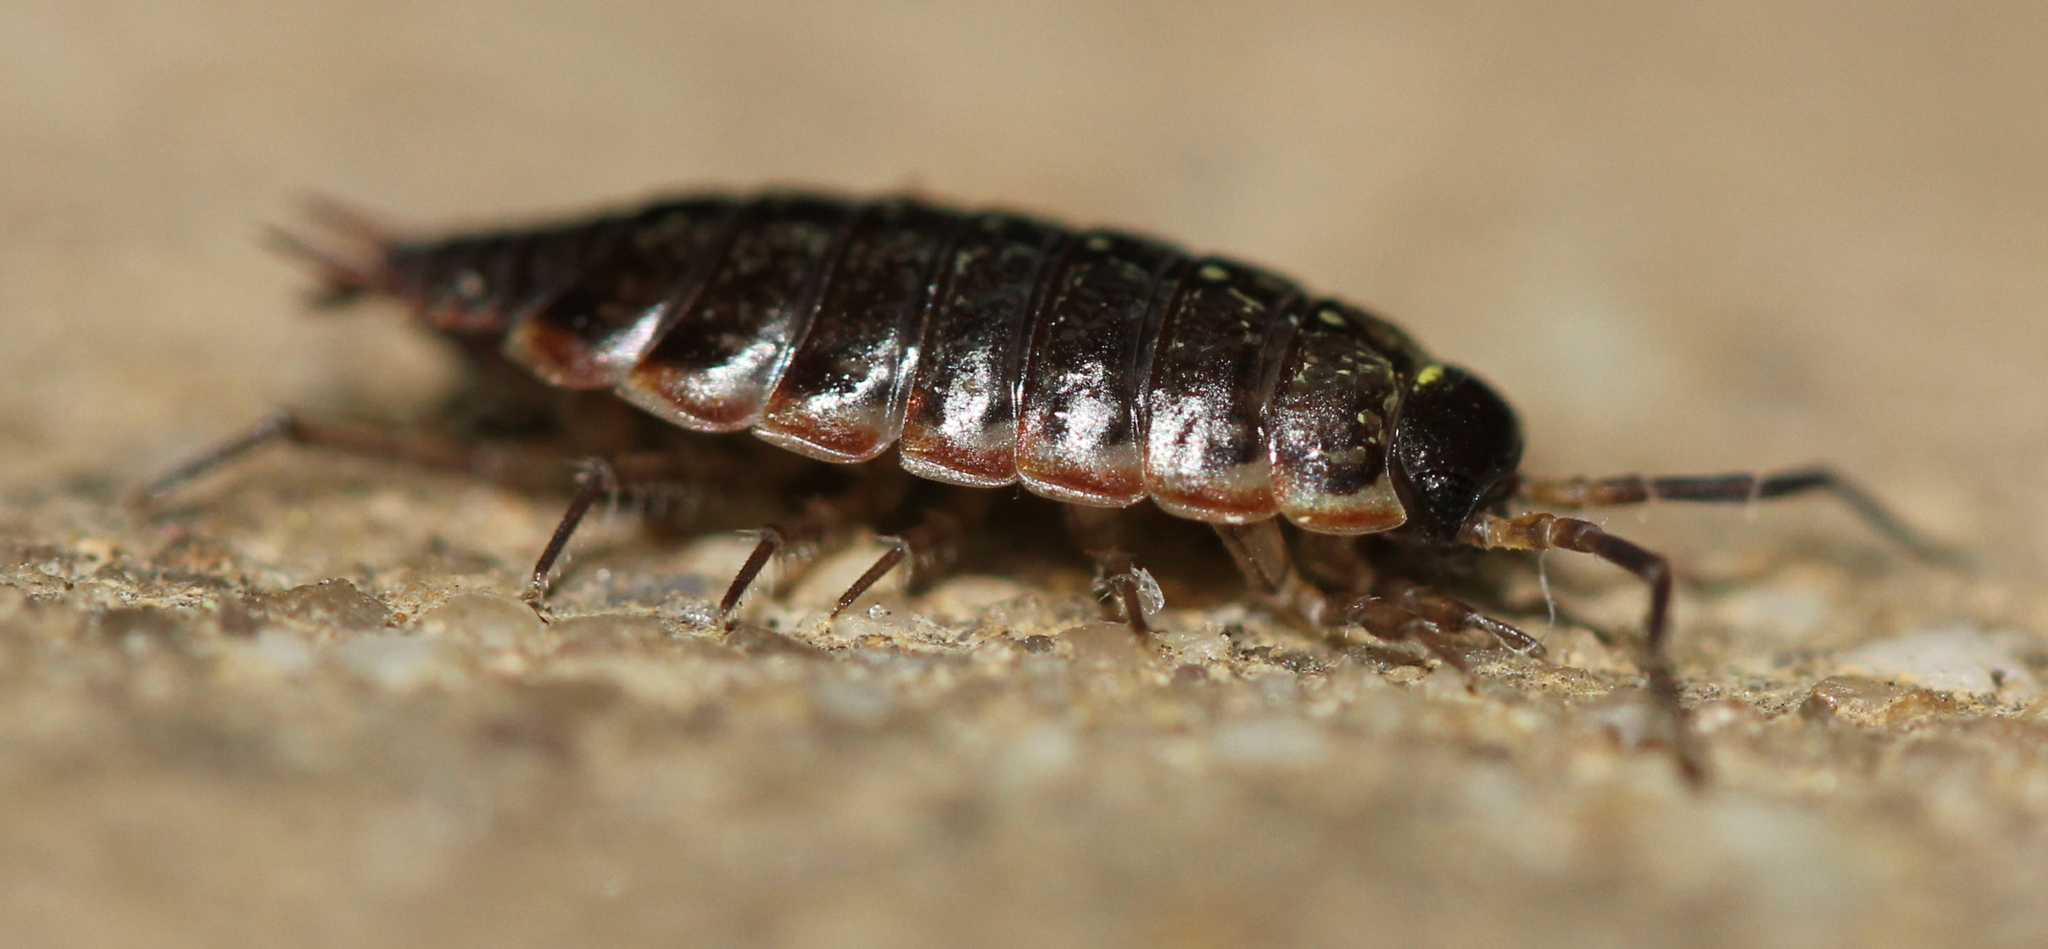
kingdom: Animalia
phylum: Arthropoda
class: Malacostraca
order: Isopoda
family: Philosciidae
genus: Philoscia
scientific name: Philoscia muscorum
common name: Common striped woodlouse
